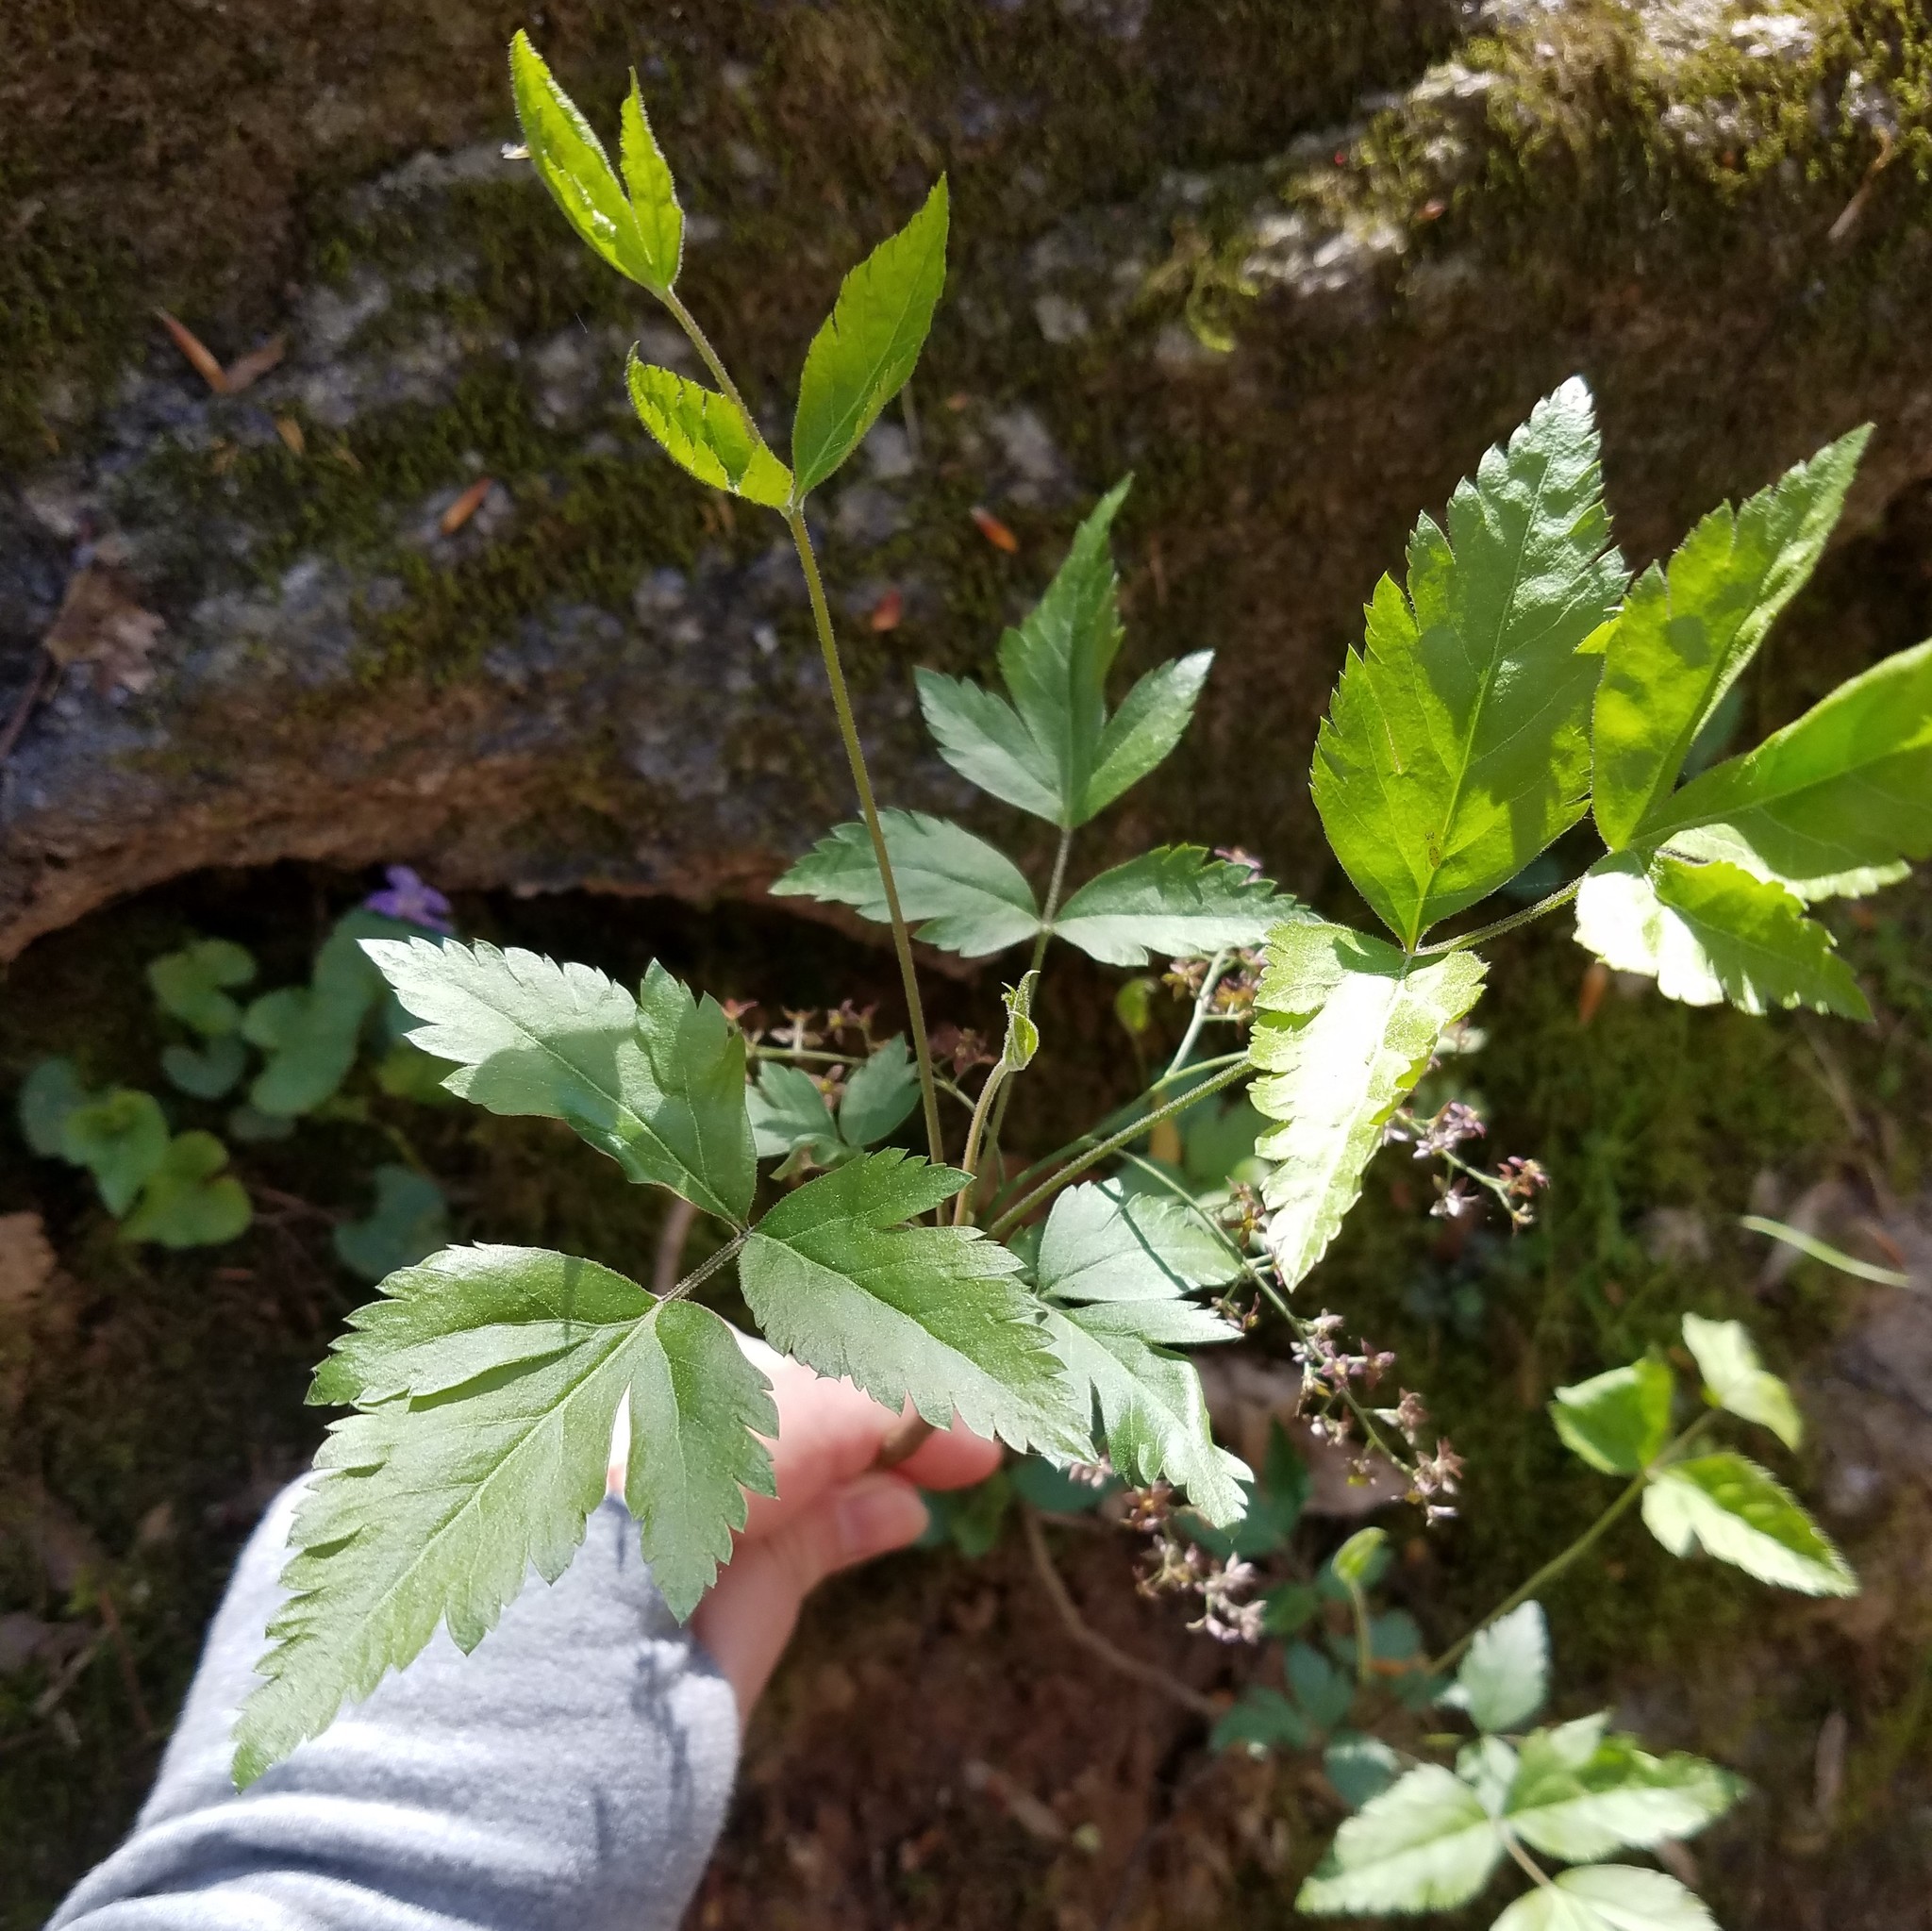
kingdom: Plantae
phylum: Tracheophyta
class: Magnoliopsida
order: Ranunculales
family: Ranunculaceae
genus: Xanthorhiza
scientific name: Xanthorhiza simplicissima
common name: Yellowroot
